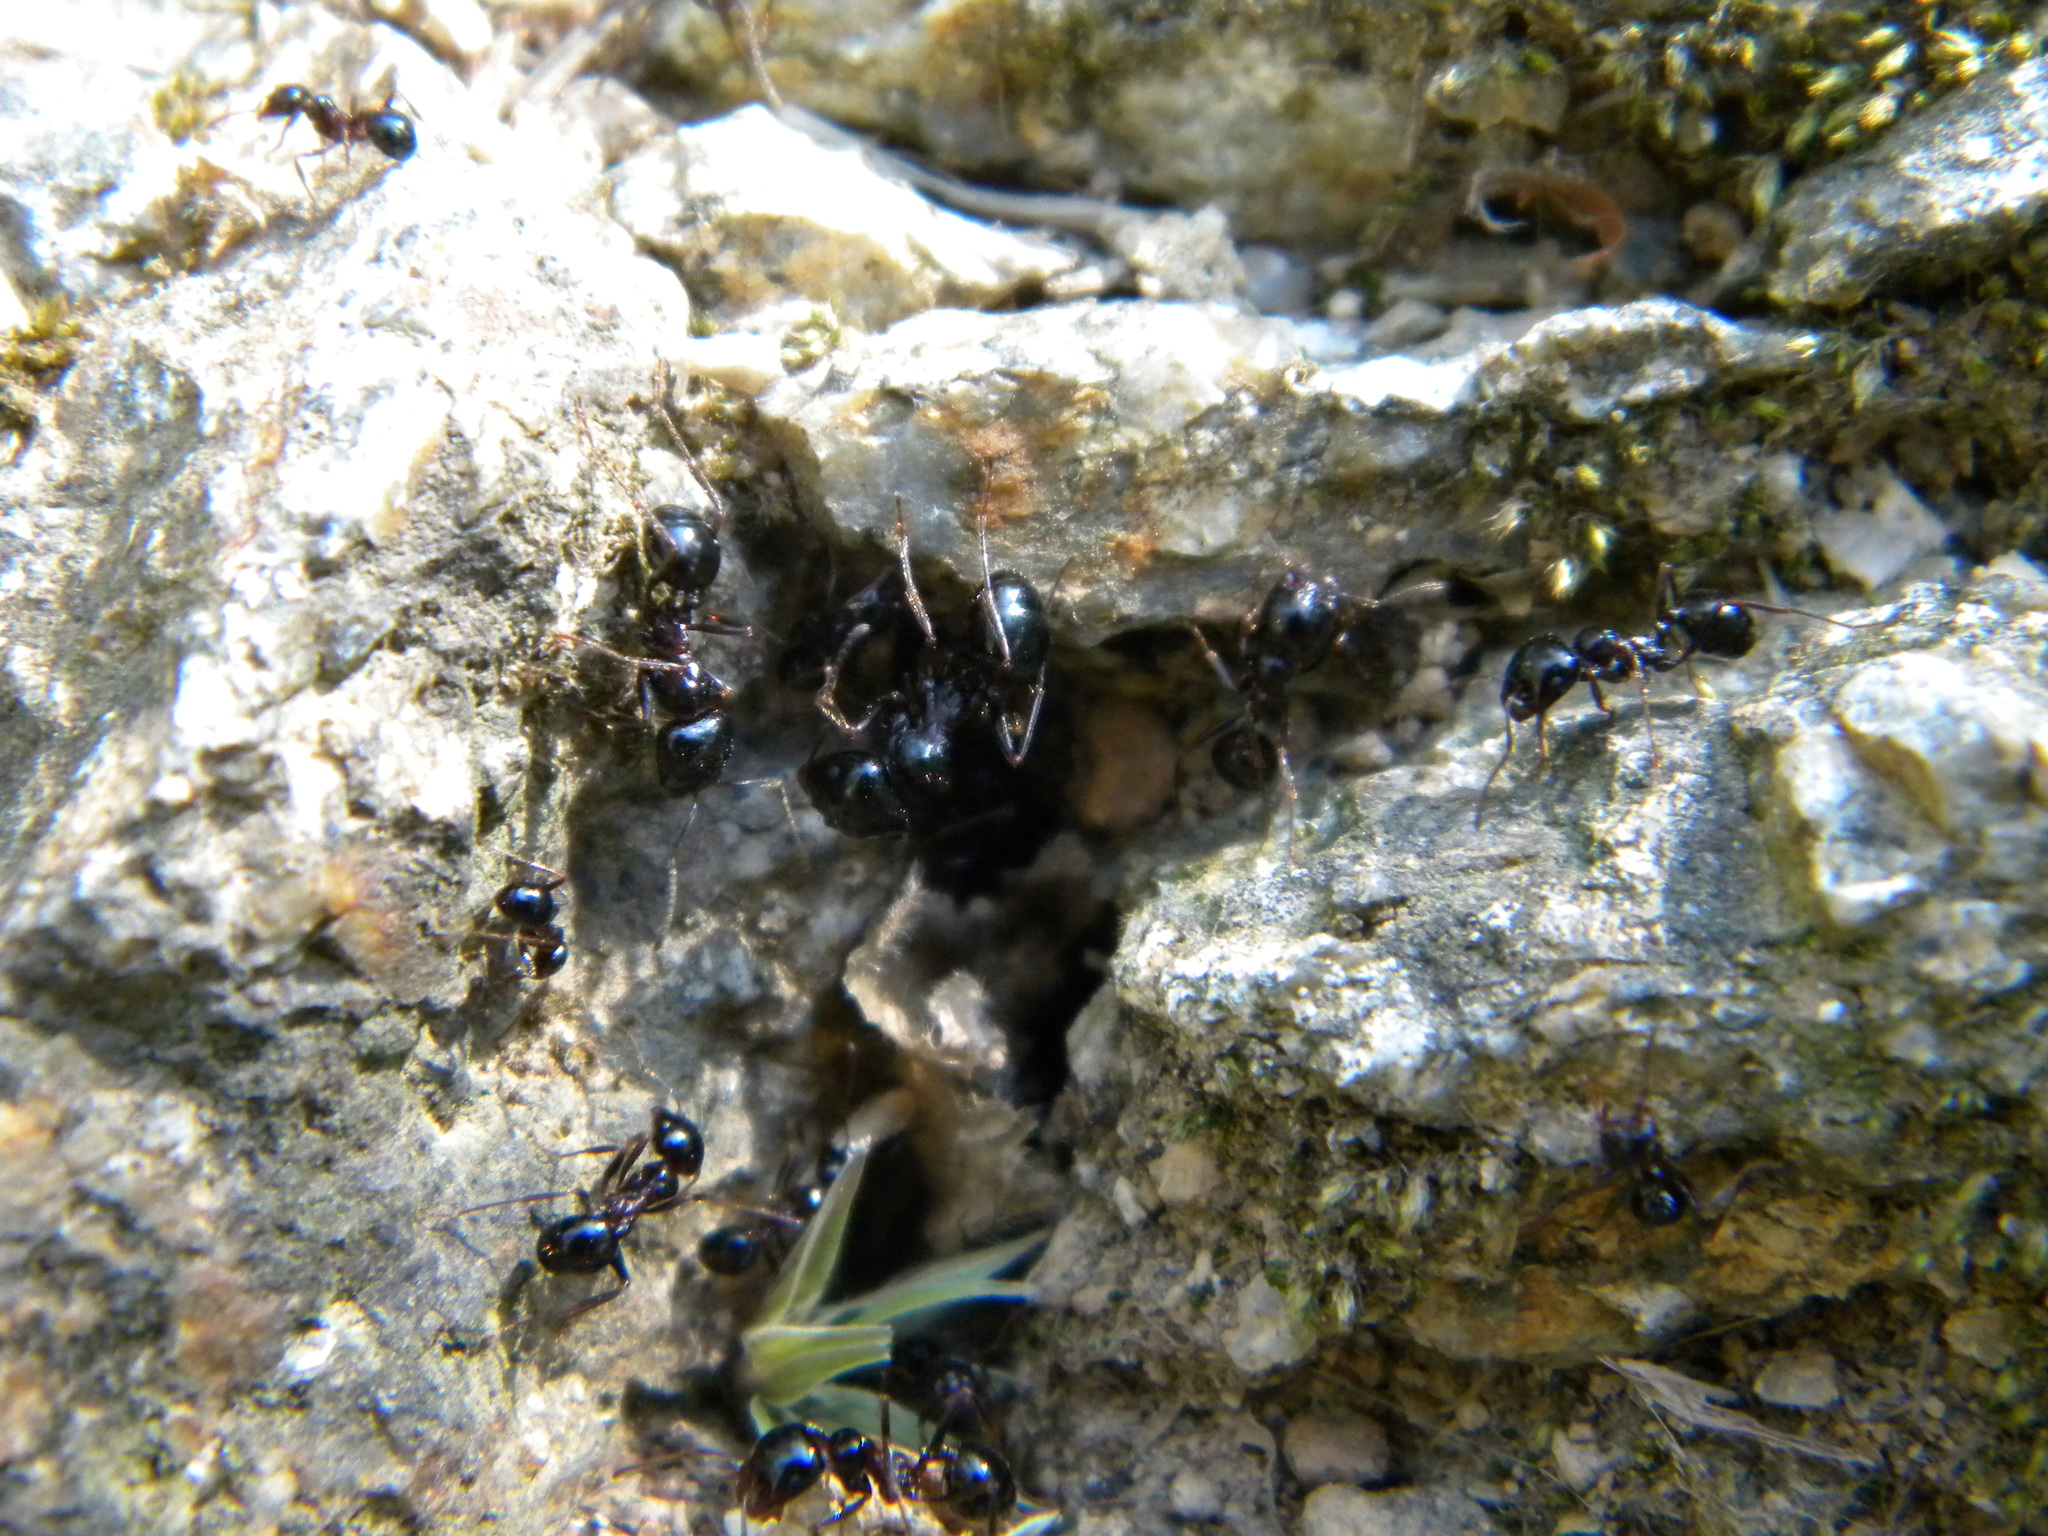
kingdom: Animalia
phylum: Arthropoda
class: Insecta
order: Hymenoptera
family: Formicidae
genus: Messor
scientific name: Messor wasmanni
